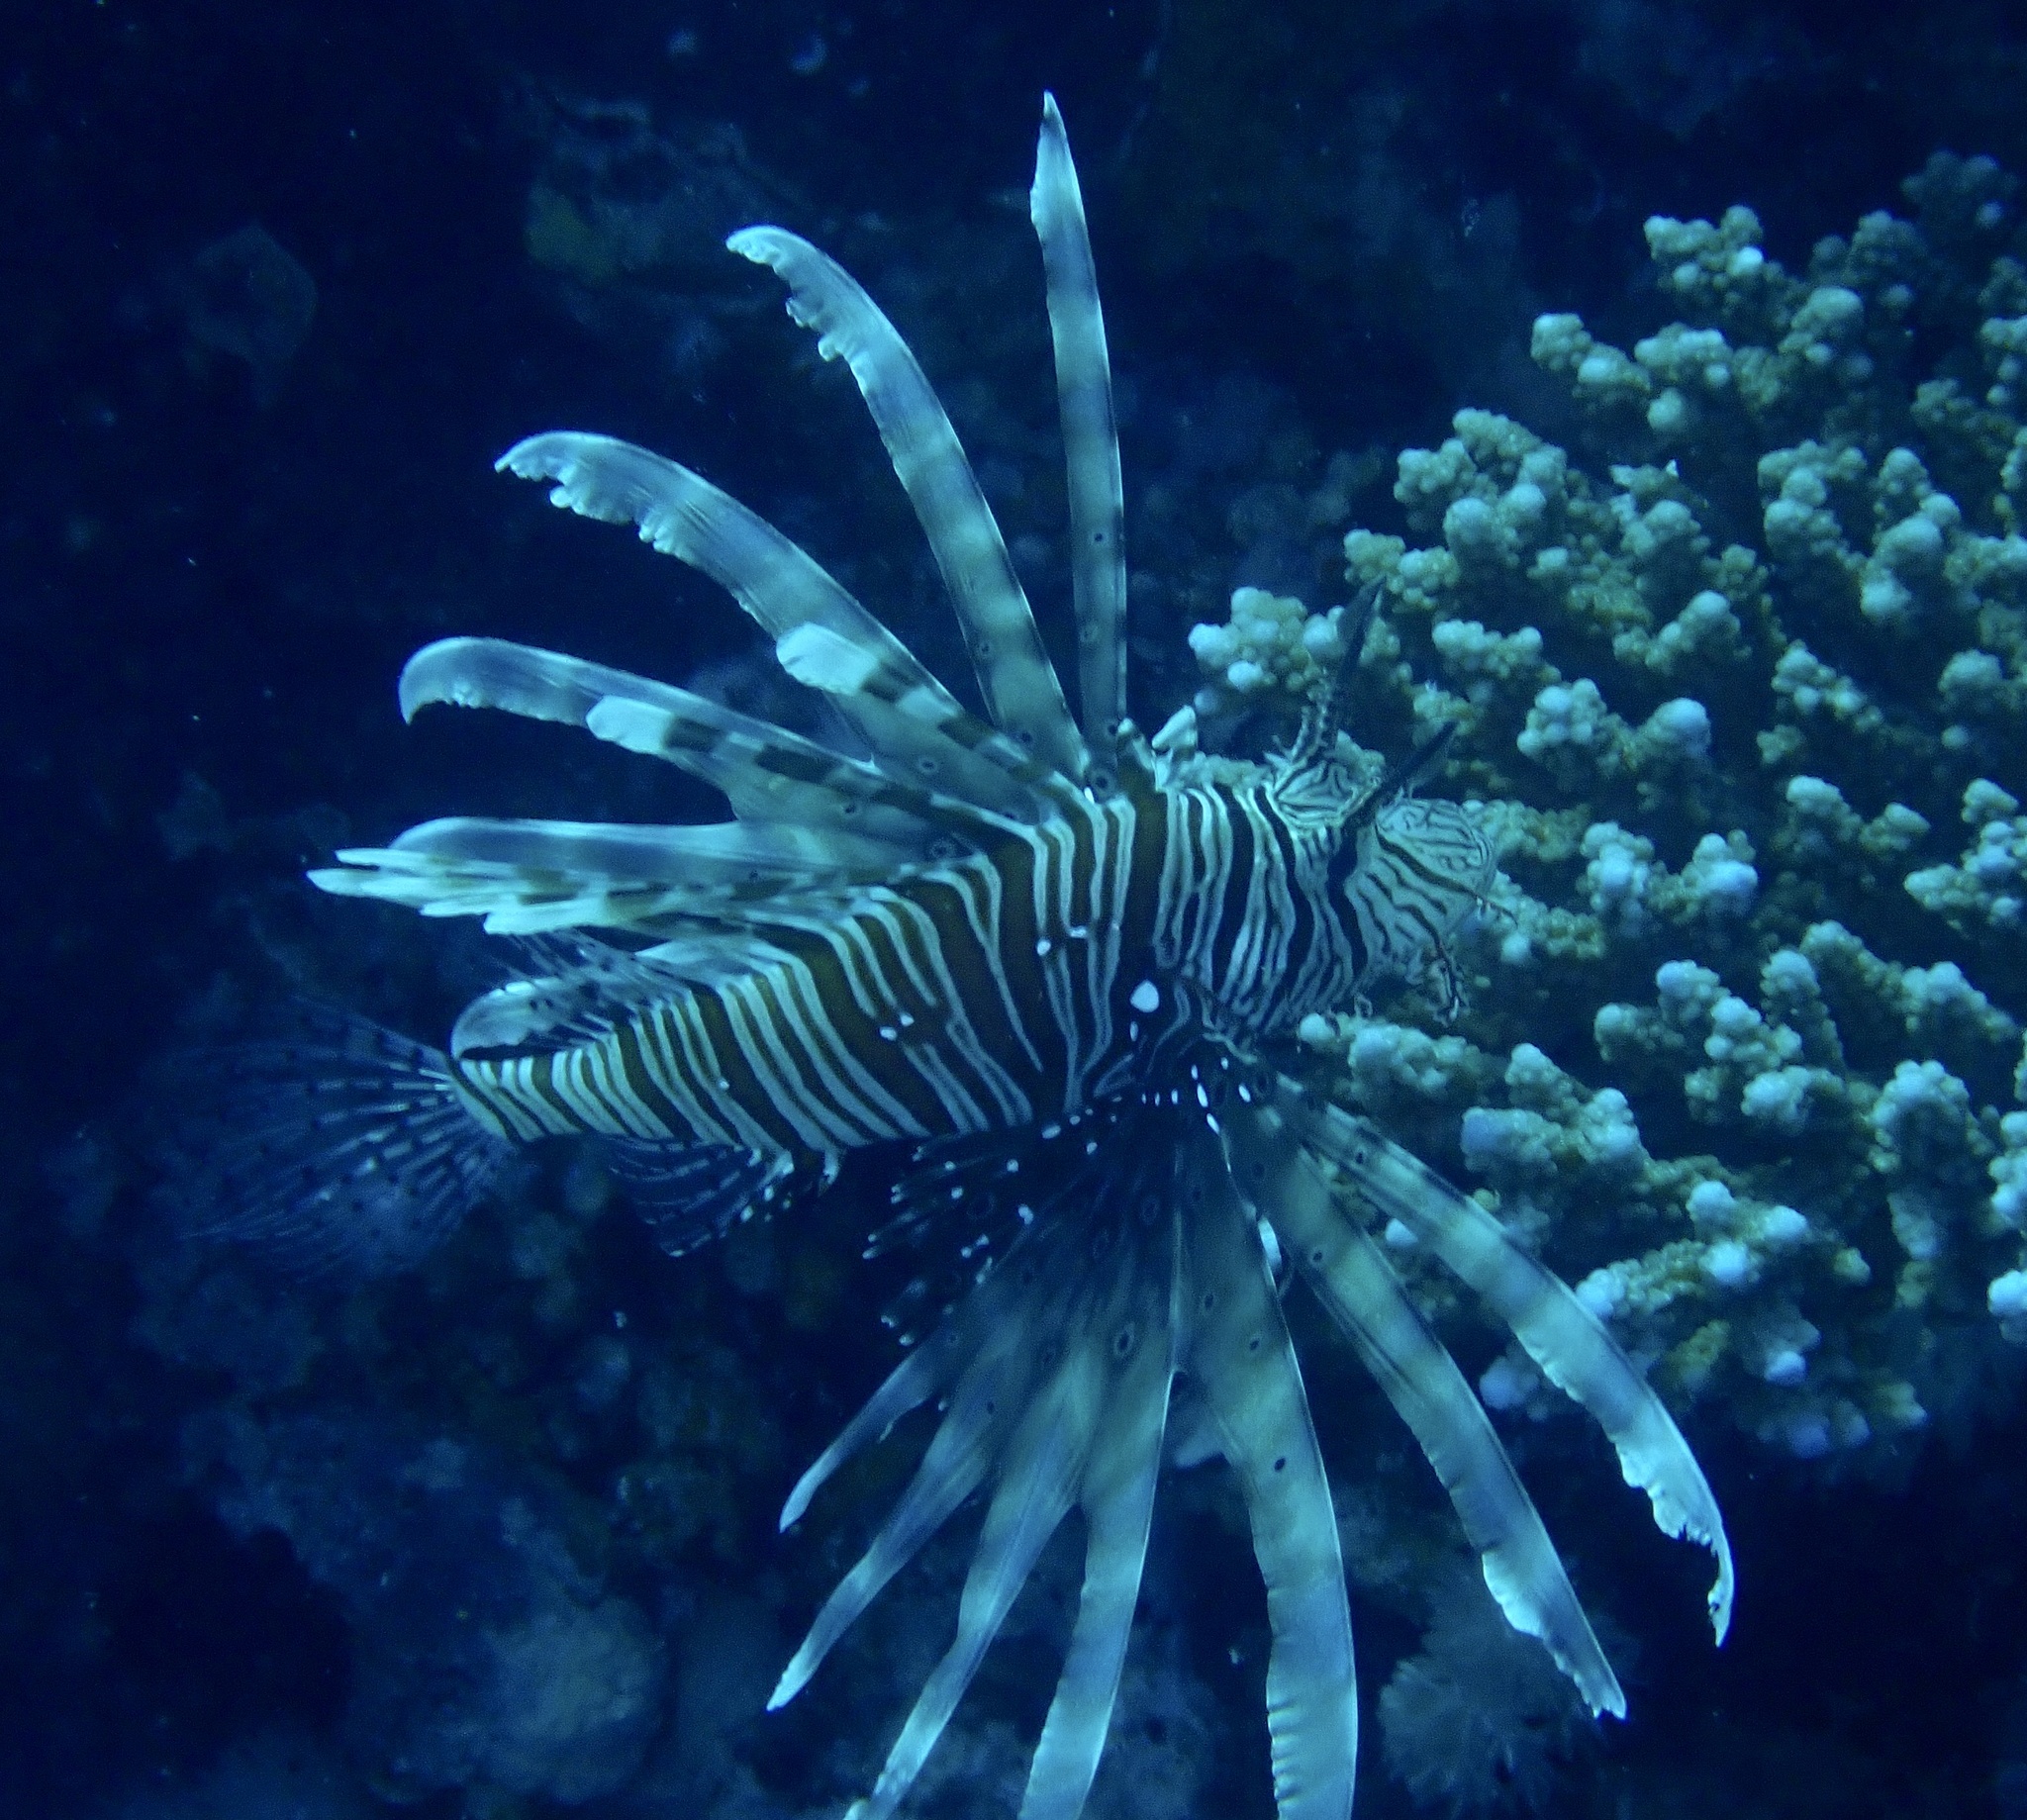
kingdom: Animalia
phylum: Chordata
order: Scorpaeniformes
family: Scorpaenidae
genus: Pterois
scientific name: Pterois miles
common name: Devil firefish
